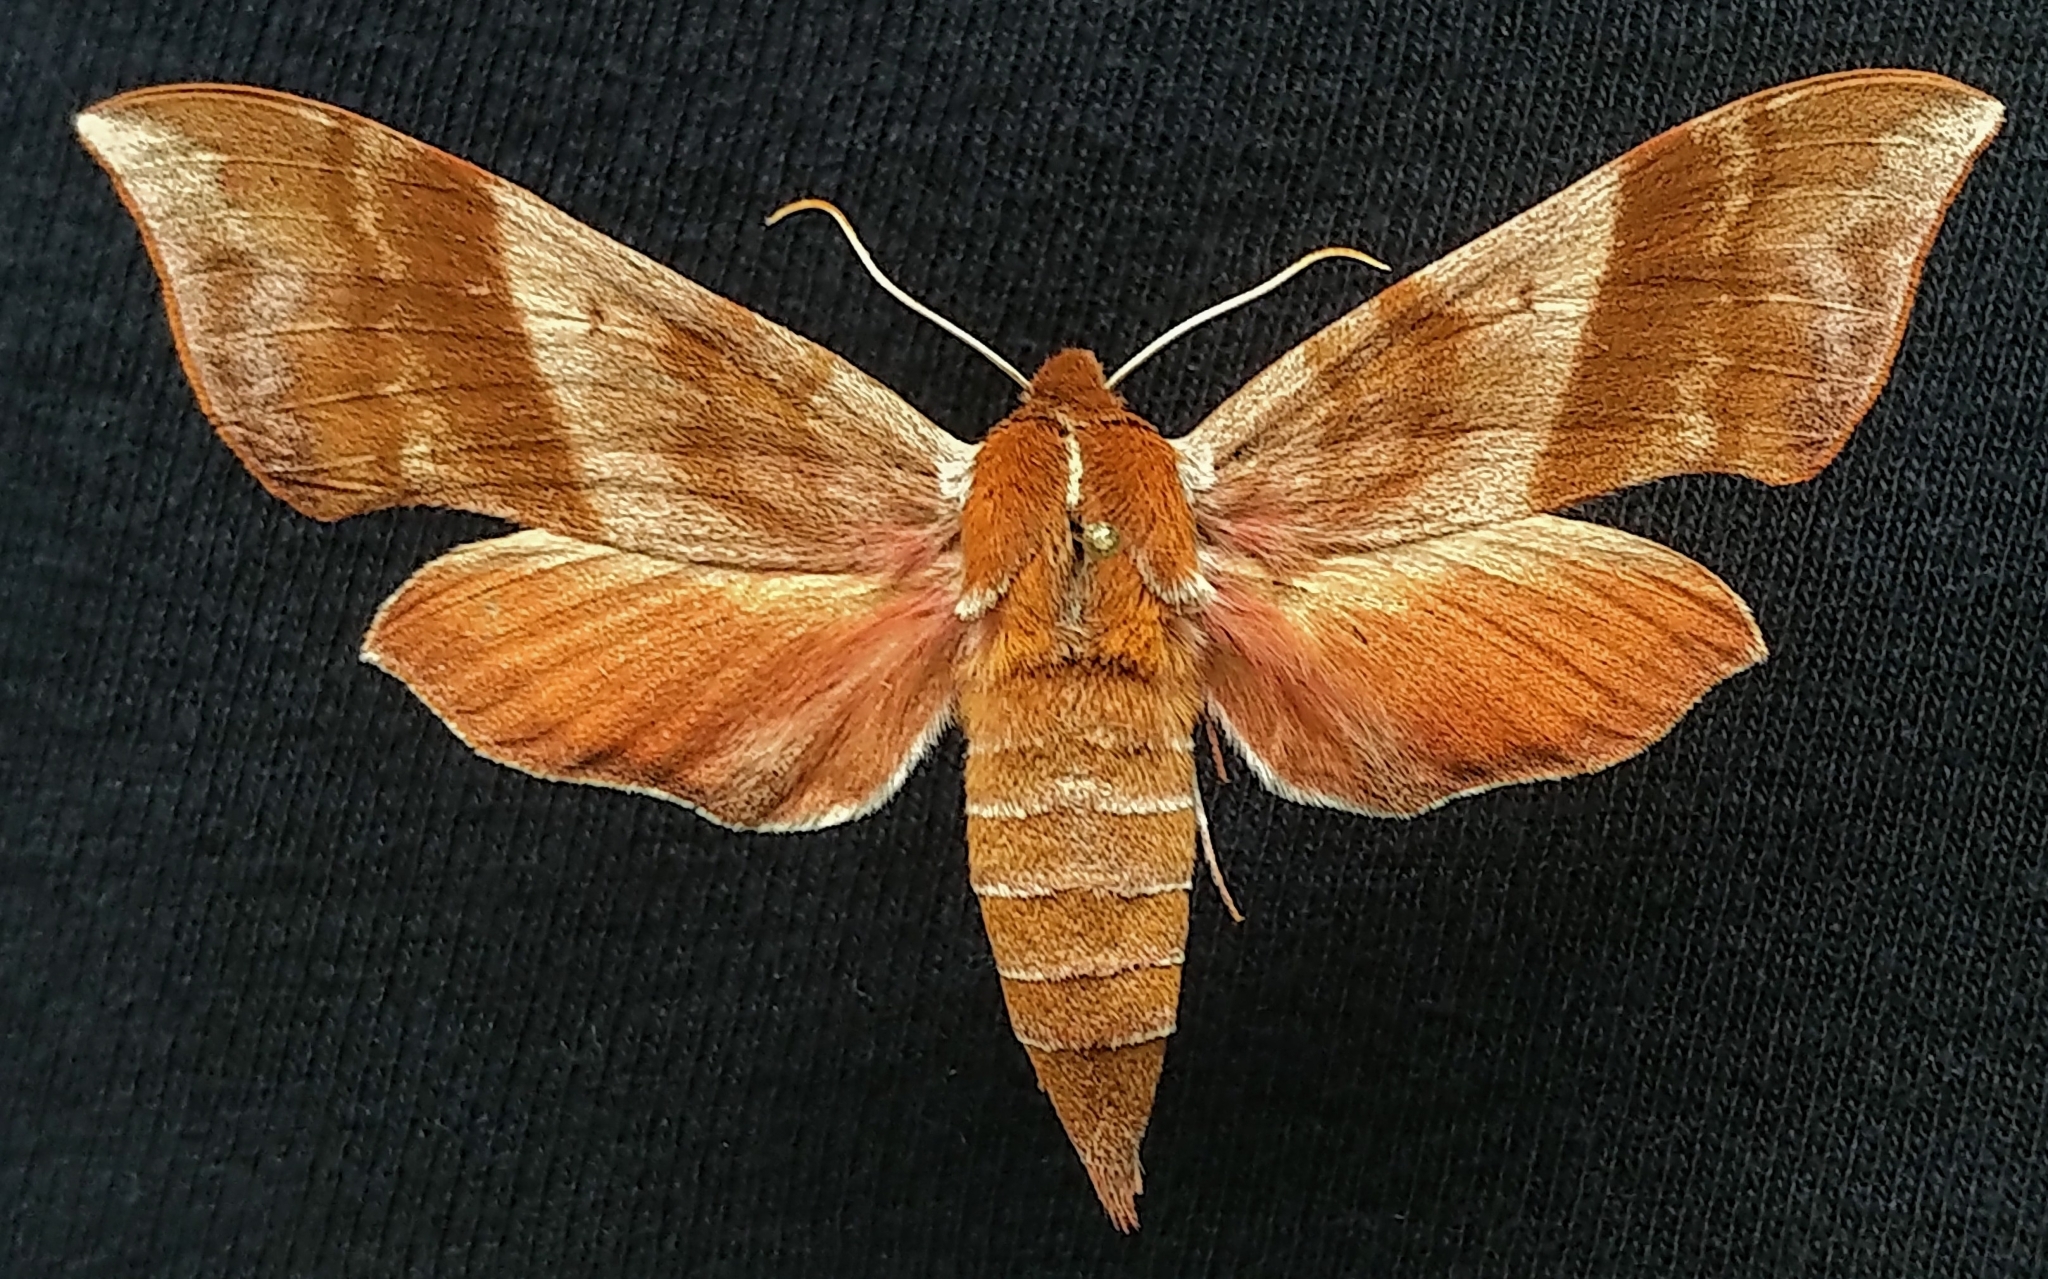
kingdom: Animalia
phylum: Arthropoda
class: Insecta
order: Lepidoptera
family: Sphingidae
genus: Darapsa
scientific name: Darapsa choerilus
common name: Azalea sphinx
